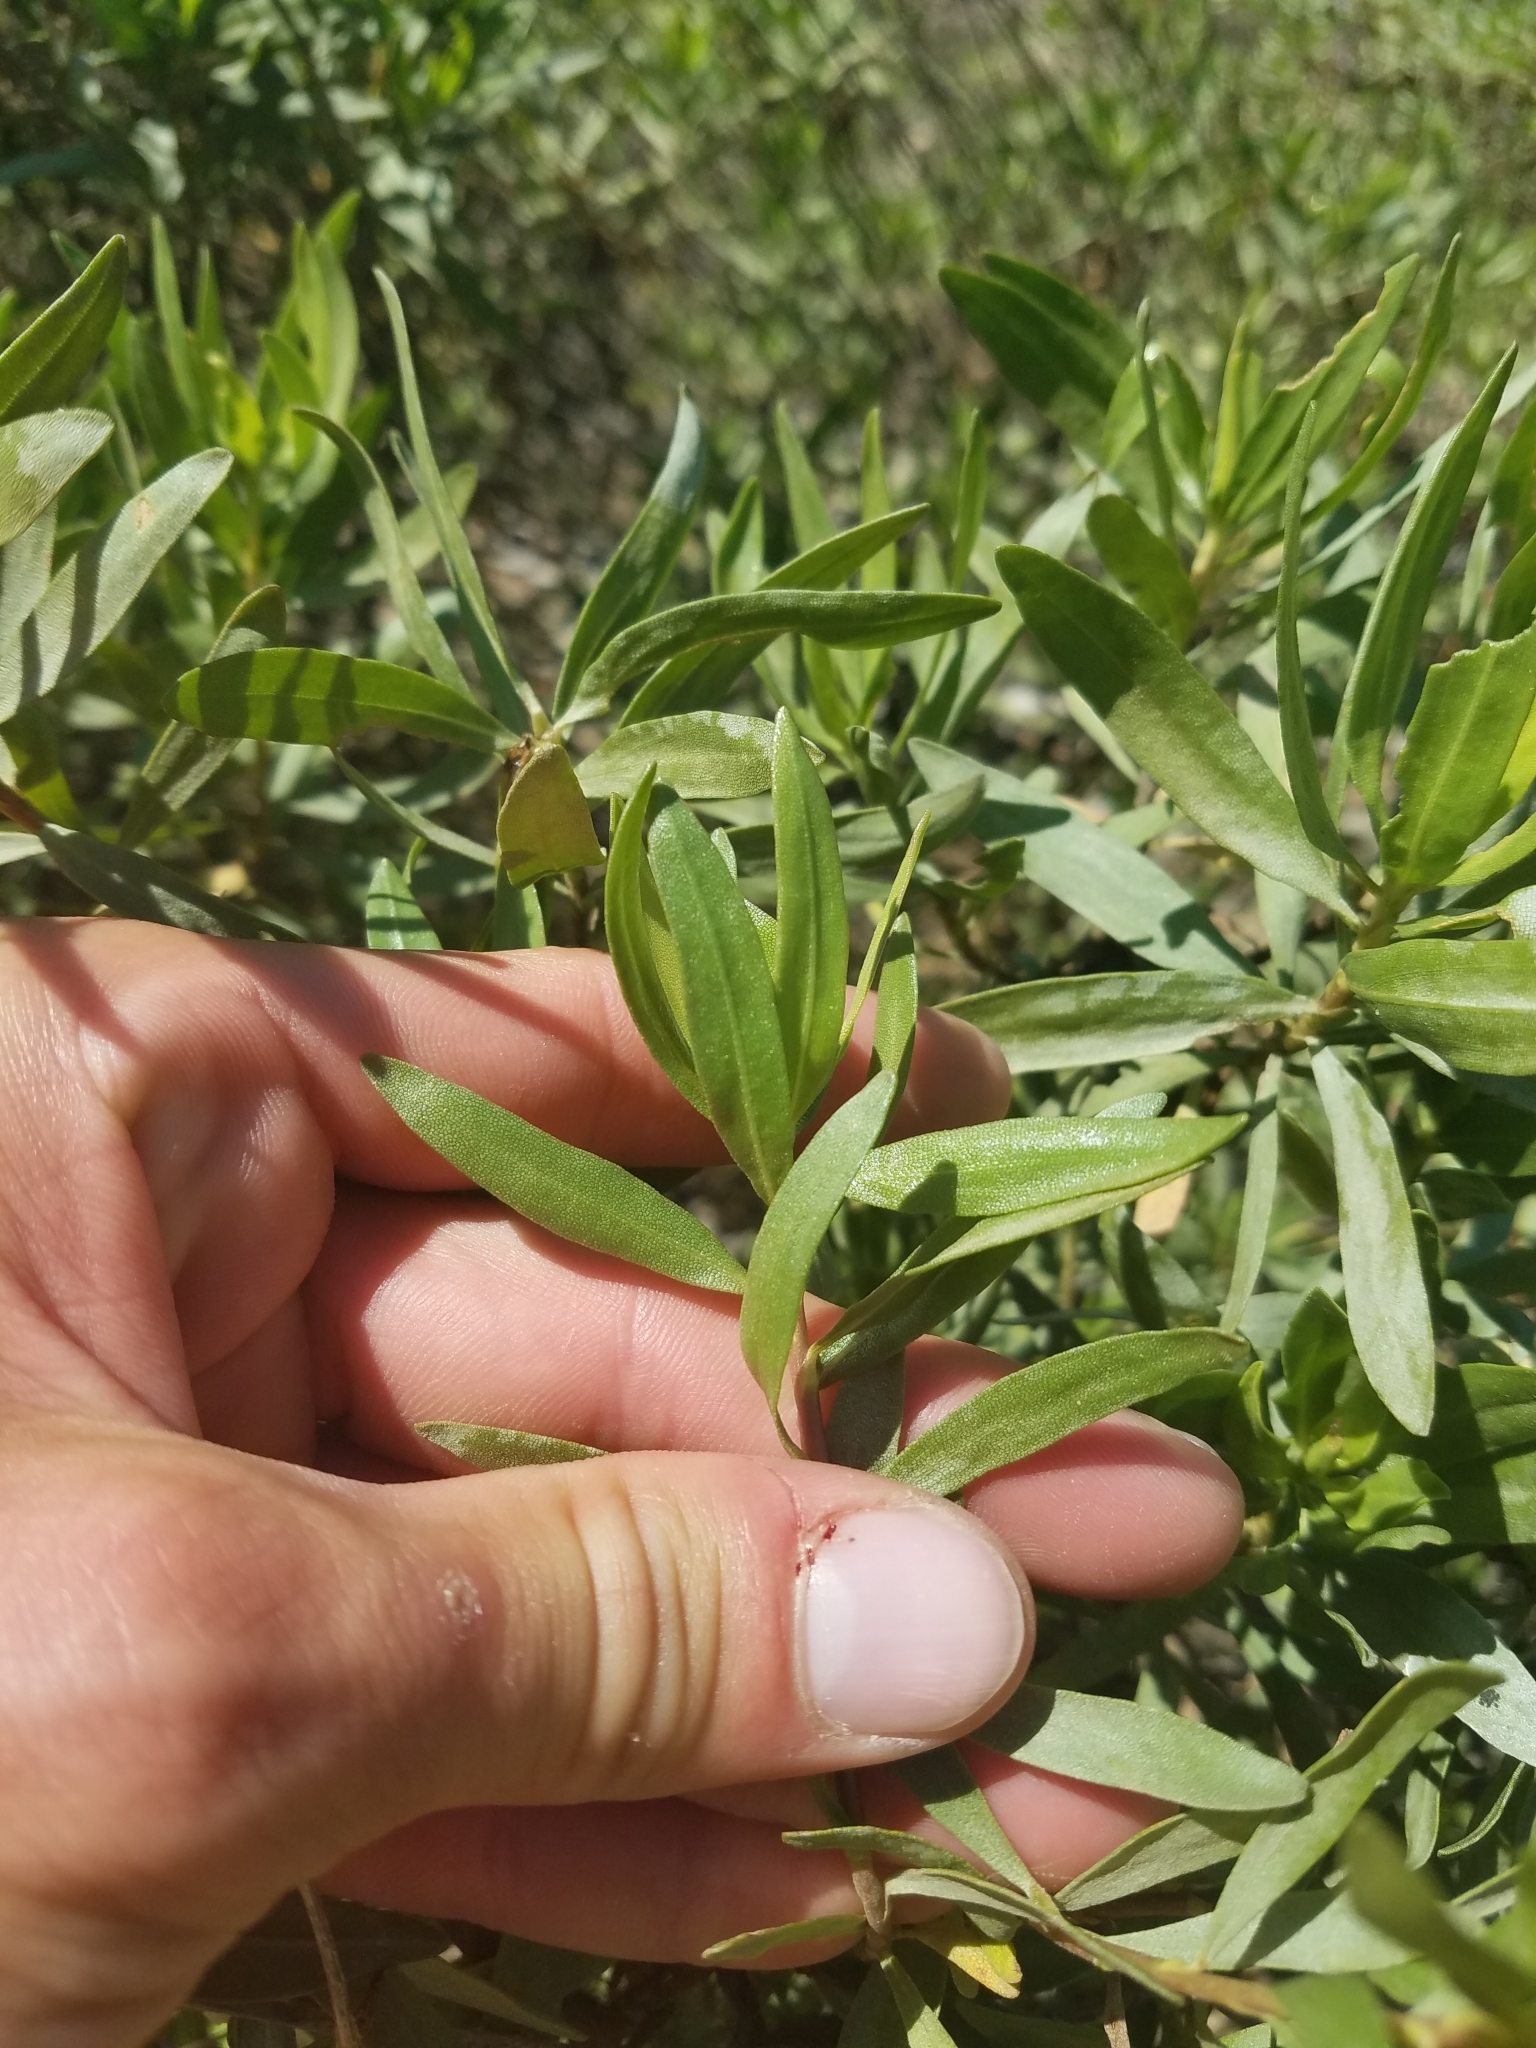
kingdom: Plantae
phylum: Tracheophyta
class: Magnoliopsida
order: Asterales
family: Asteraceae
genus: Chrysoma
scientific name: Chrysoma pauciflosculosa
